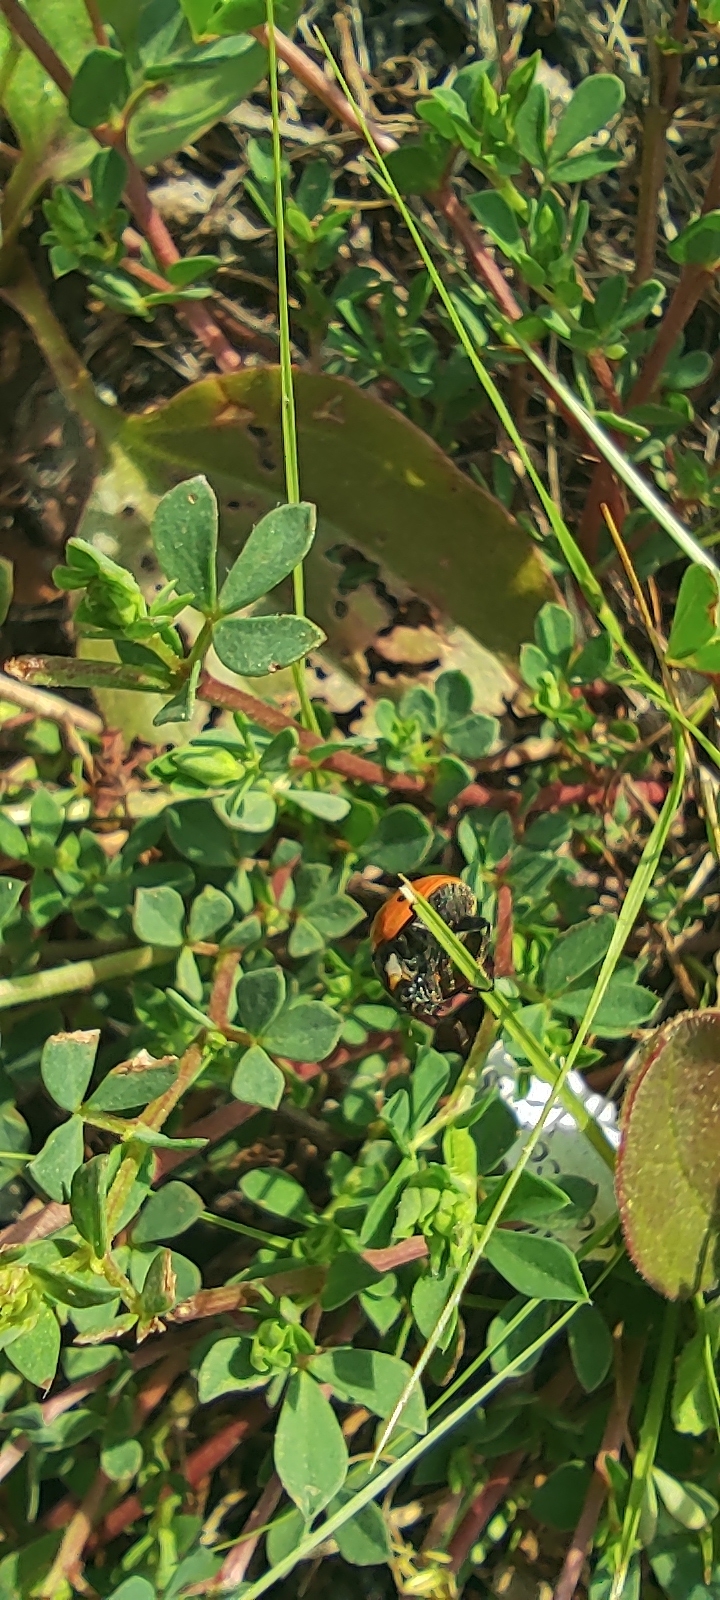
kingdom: Animalia
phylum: Arthropoda
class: Insecta
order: Coleoptera
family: Coccinellidae
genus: Coccinella
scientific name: Coccinella septempunctata
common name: Sevenspotted lady beetle
